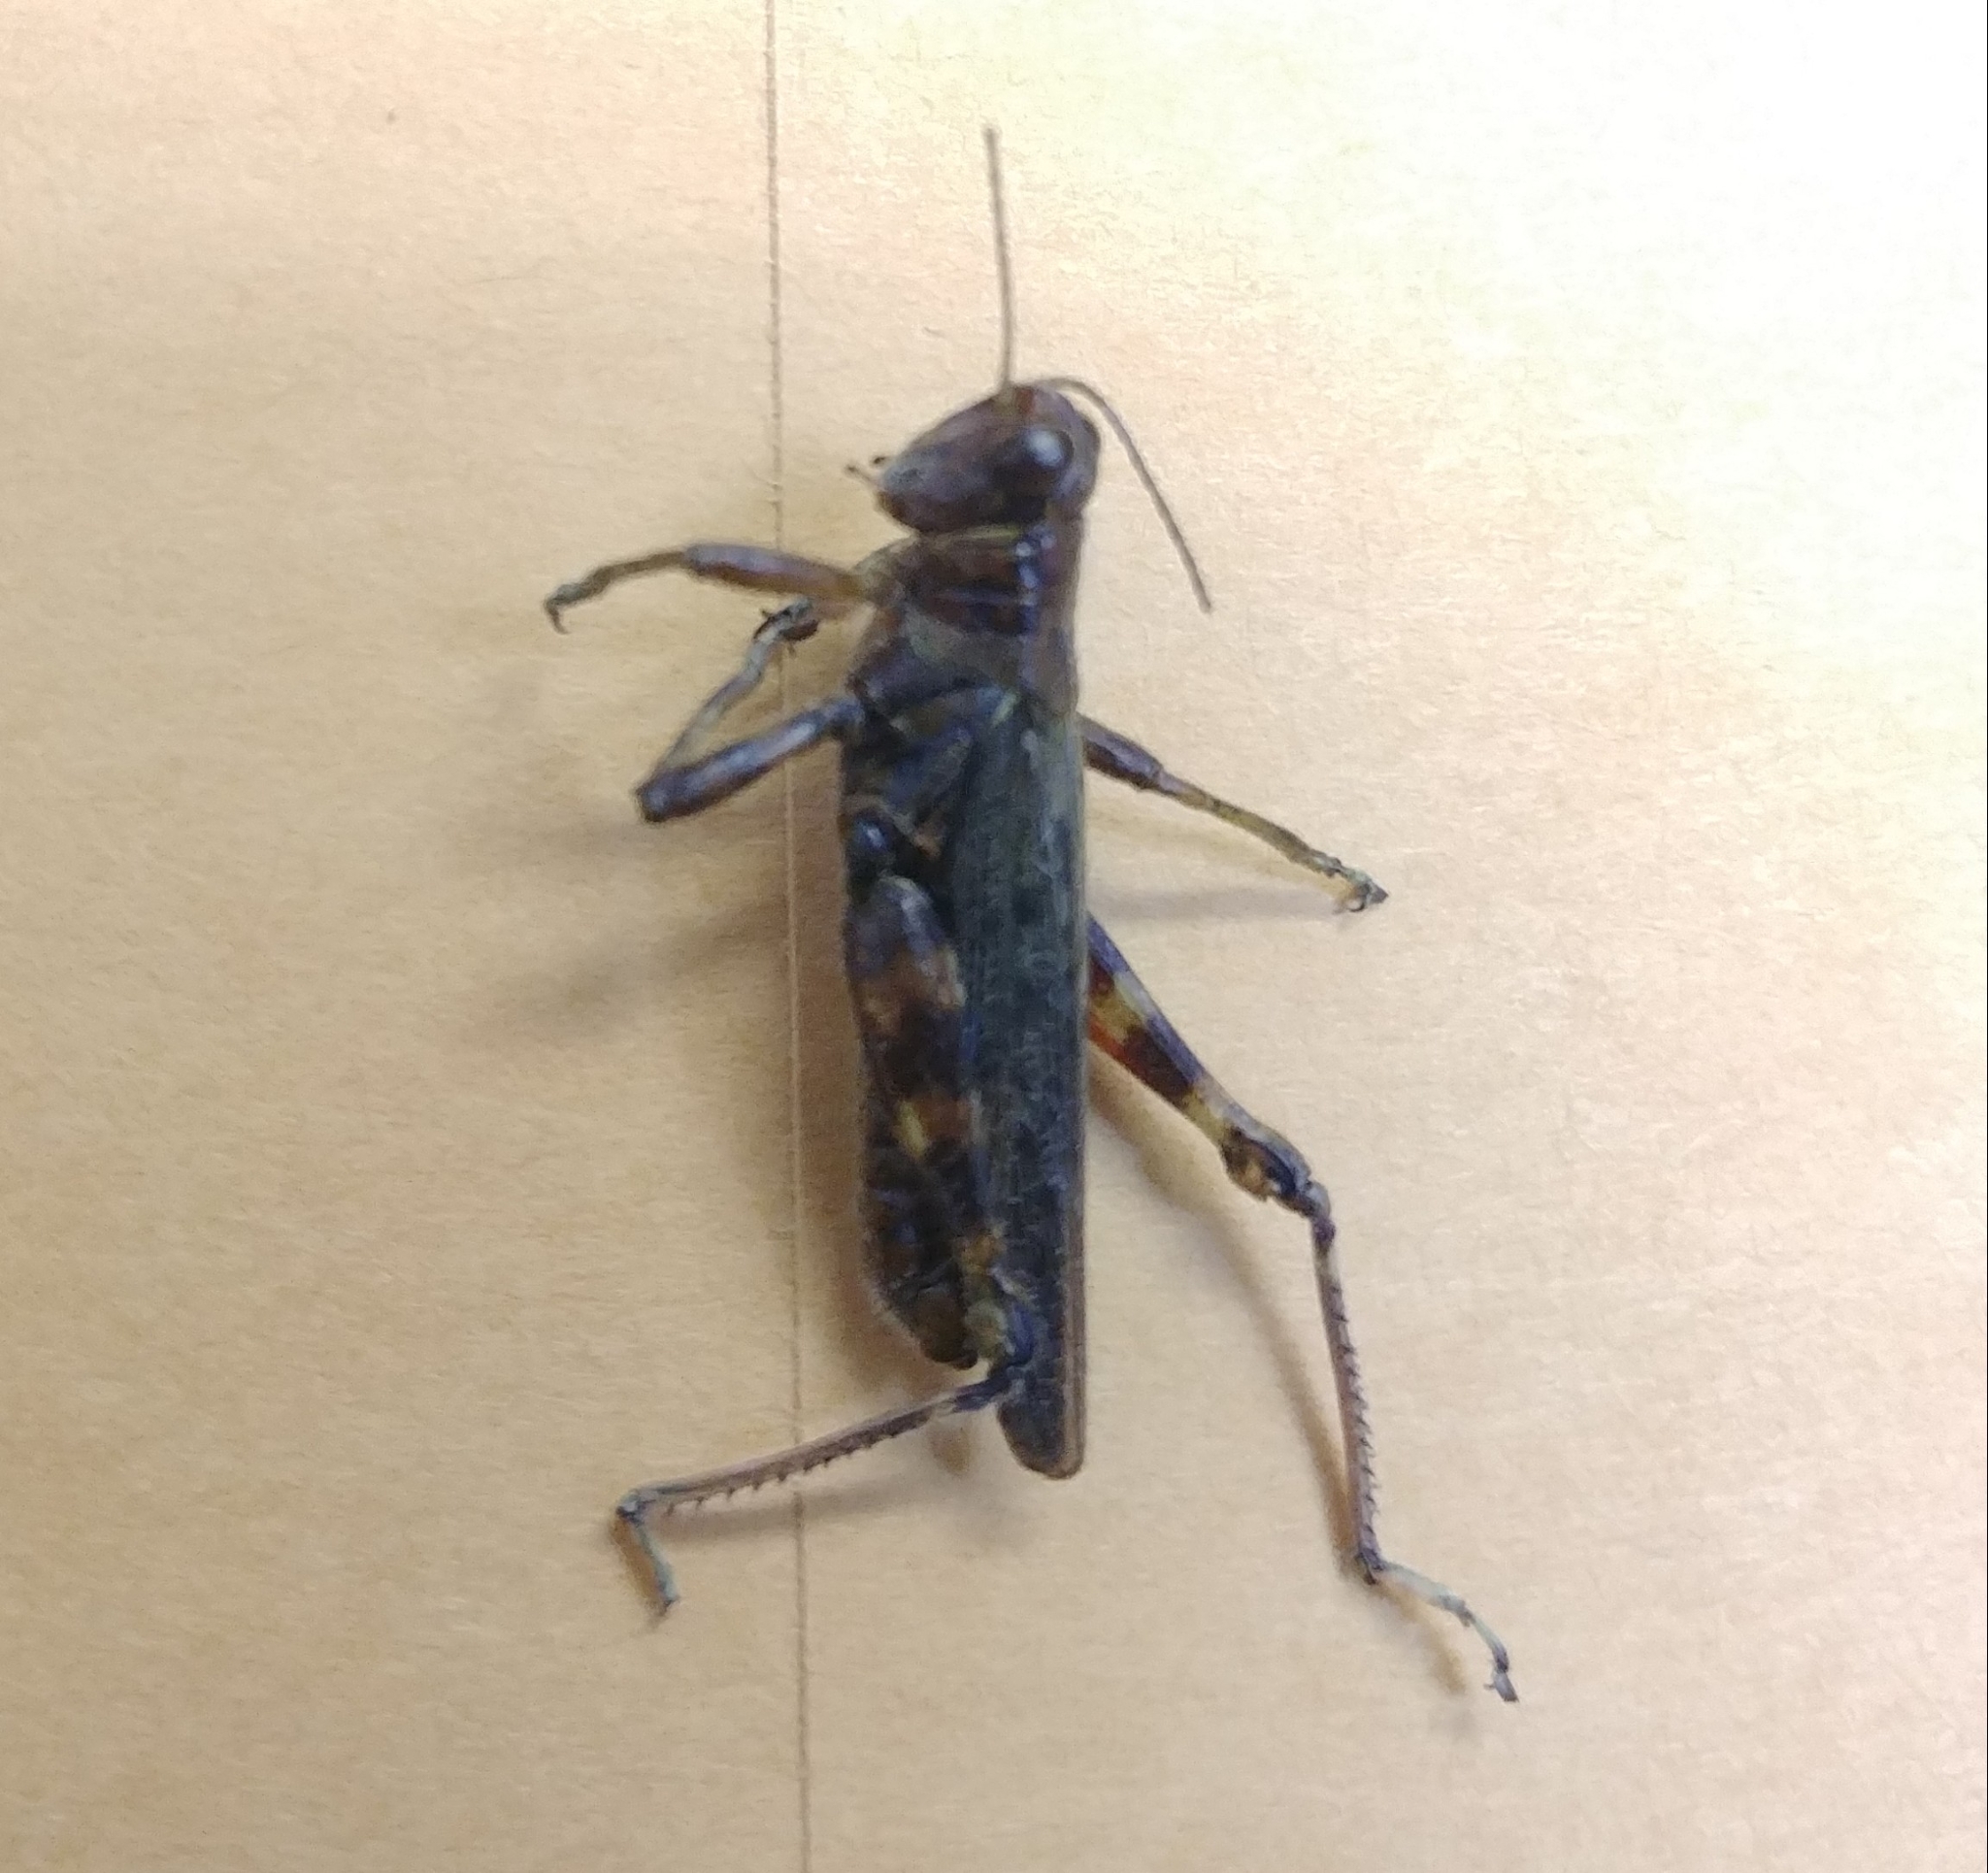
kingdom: Animalia
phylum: Arthropoda
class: Insecta
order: Orthoptera
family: Acrididae
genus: Melanoplus
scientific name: Melanoplus punctulatus
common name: Pine-tree spur-throat grasshopper
